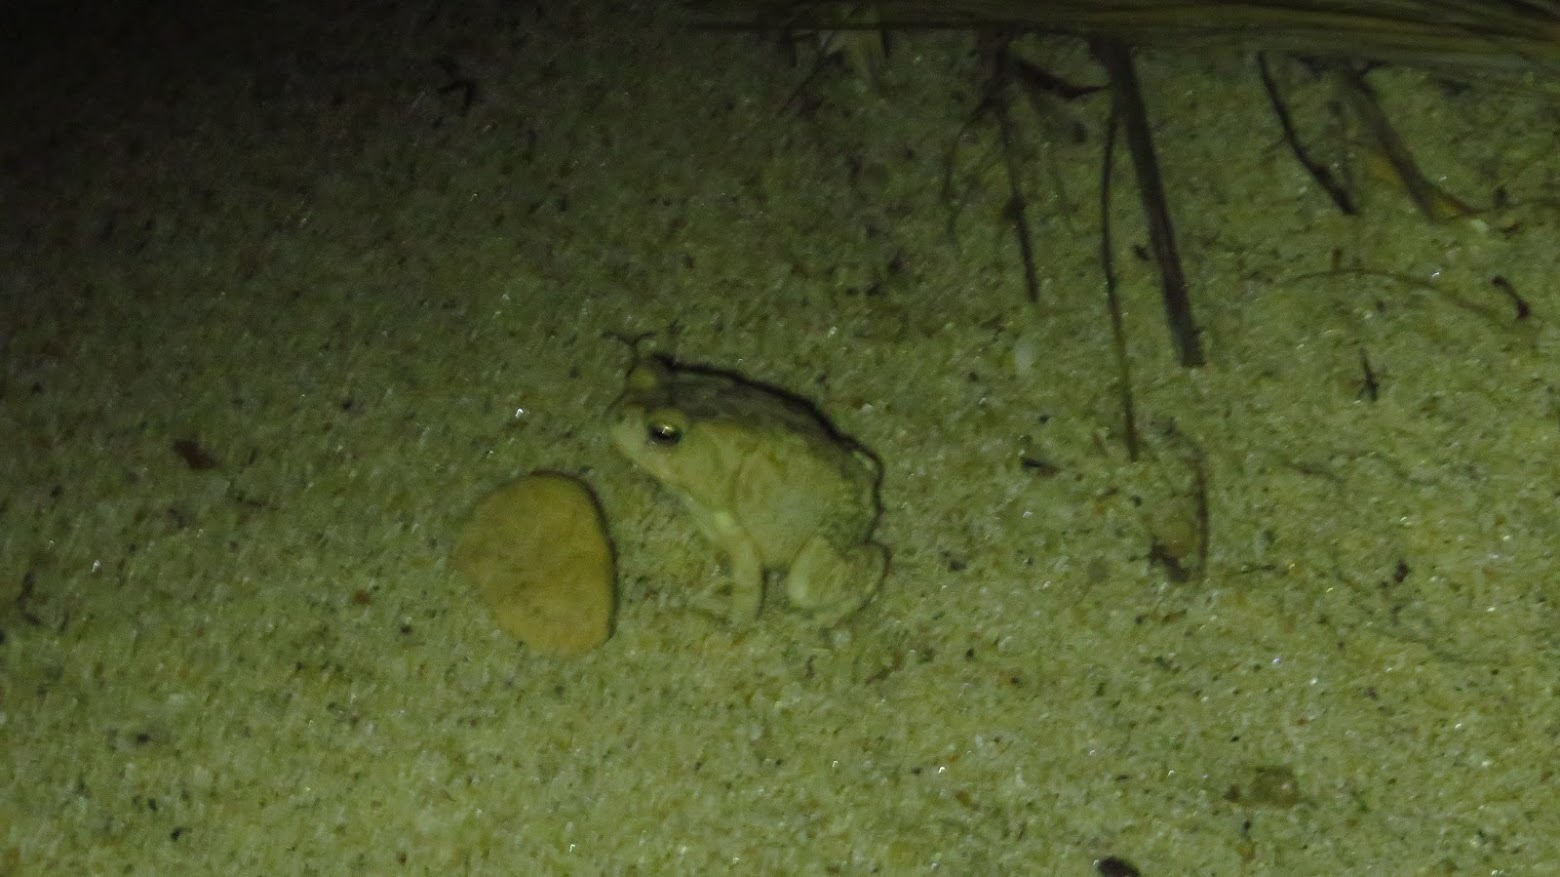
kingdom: Animalia
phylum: Chordata
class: Amphibia
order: Anura
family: Bufonidae
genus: Anaxyrus
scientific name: Anaxyrus fowleri
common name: Fowler's toad
